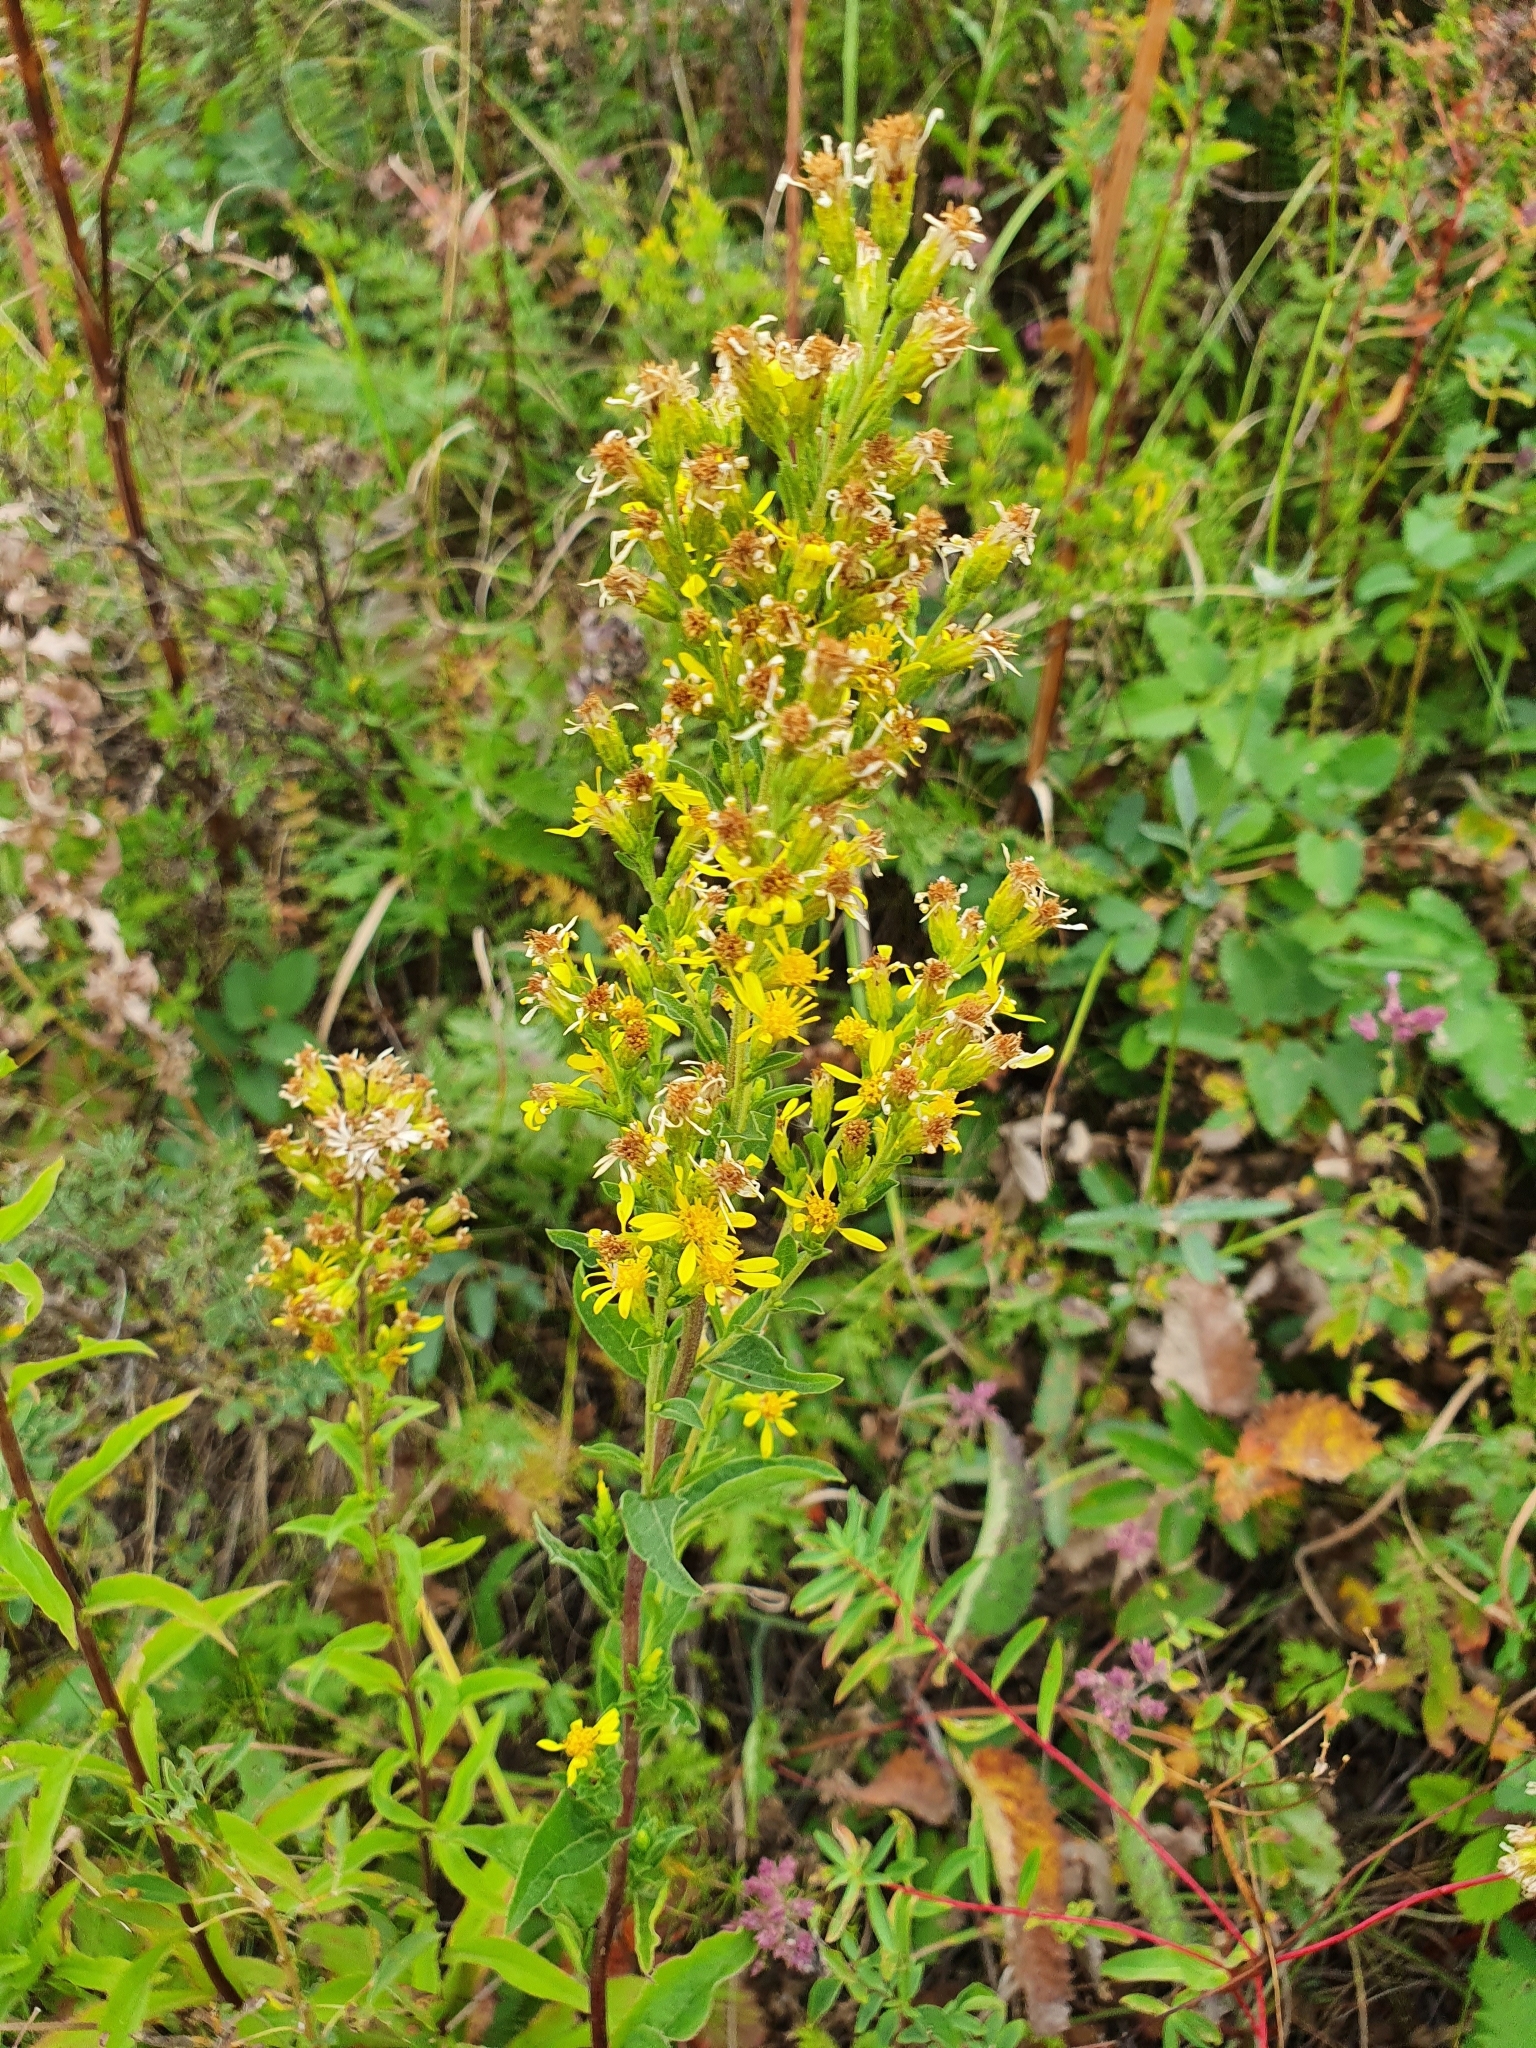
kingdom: Plantae
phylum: Tracheophyta
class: Magnoliopsida
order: Asterales
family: Asteraceae
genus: Solidago
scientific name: Solidago virgaurea
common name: Goldenrod
